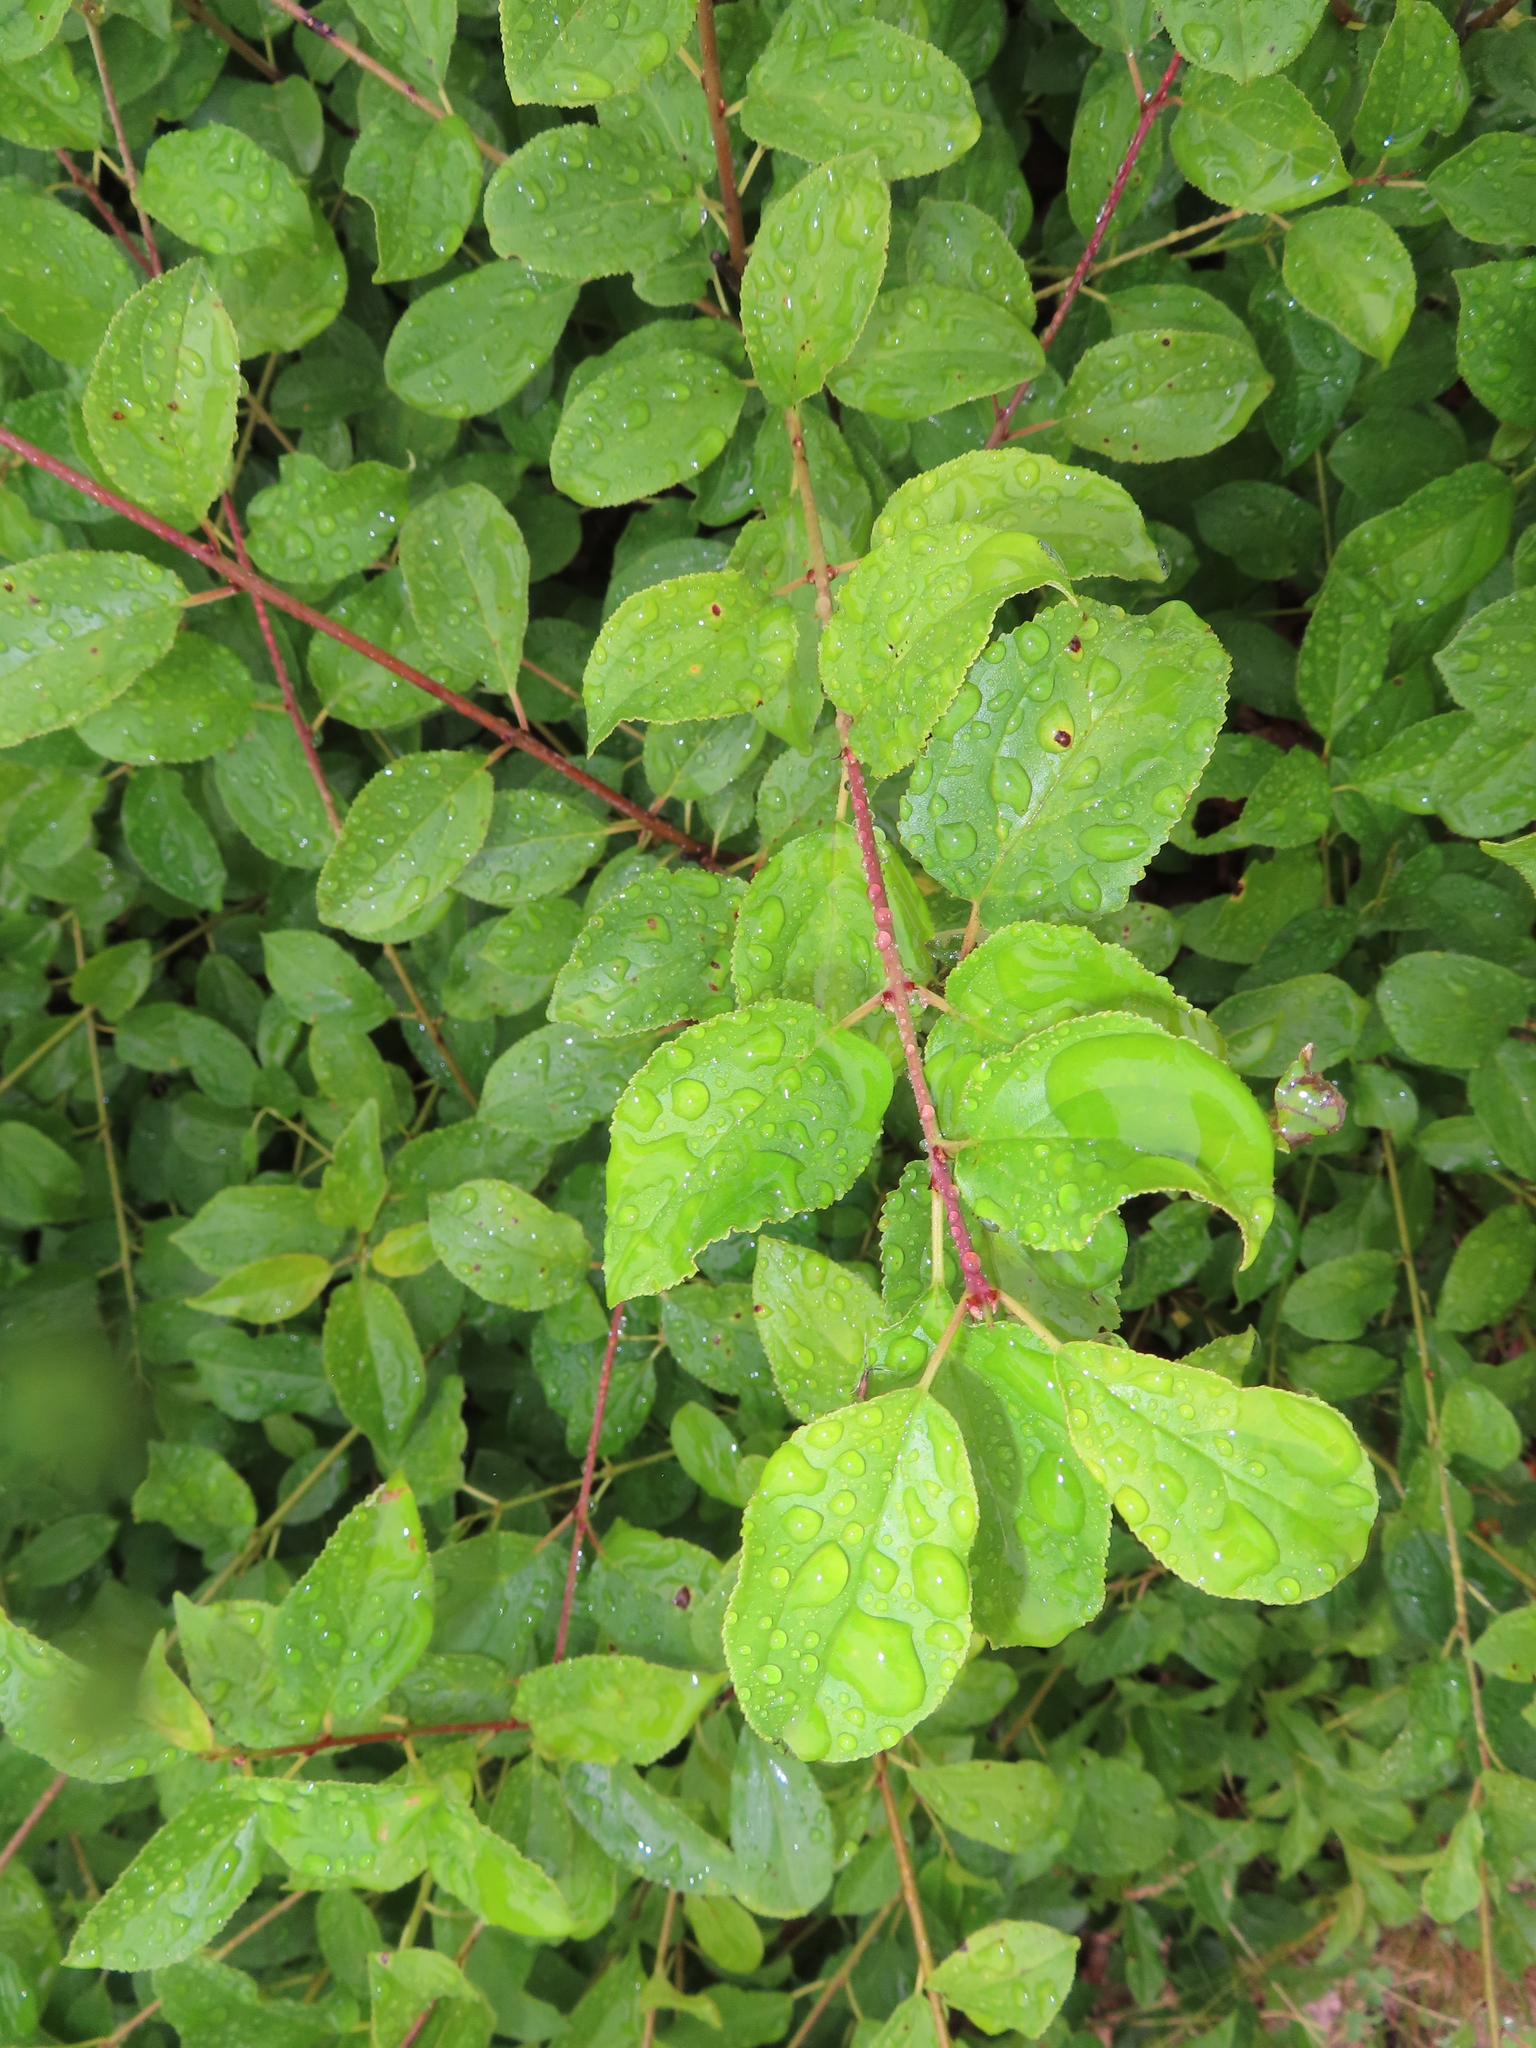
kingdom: Plantae
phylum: Tracheophyta
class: Magnoliopsida
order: Rosales
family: Rhamnaceae
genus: Rhamnus
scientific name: Rhamnus cathartica
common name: Common buckthorn
